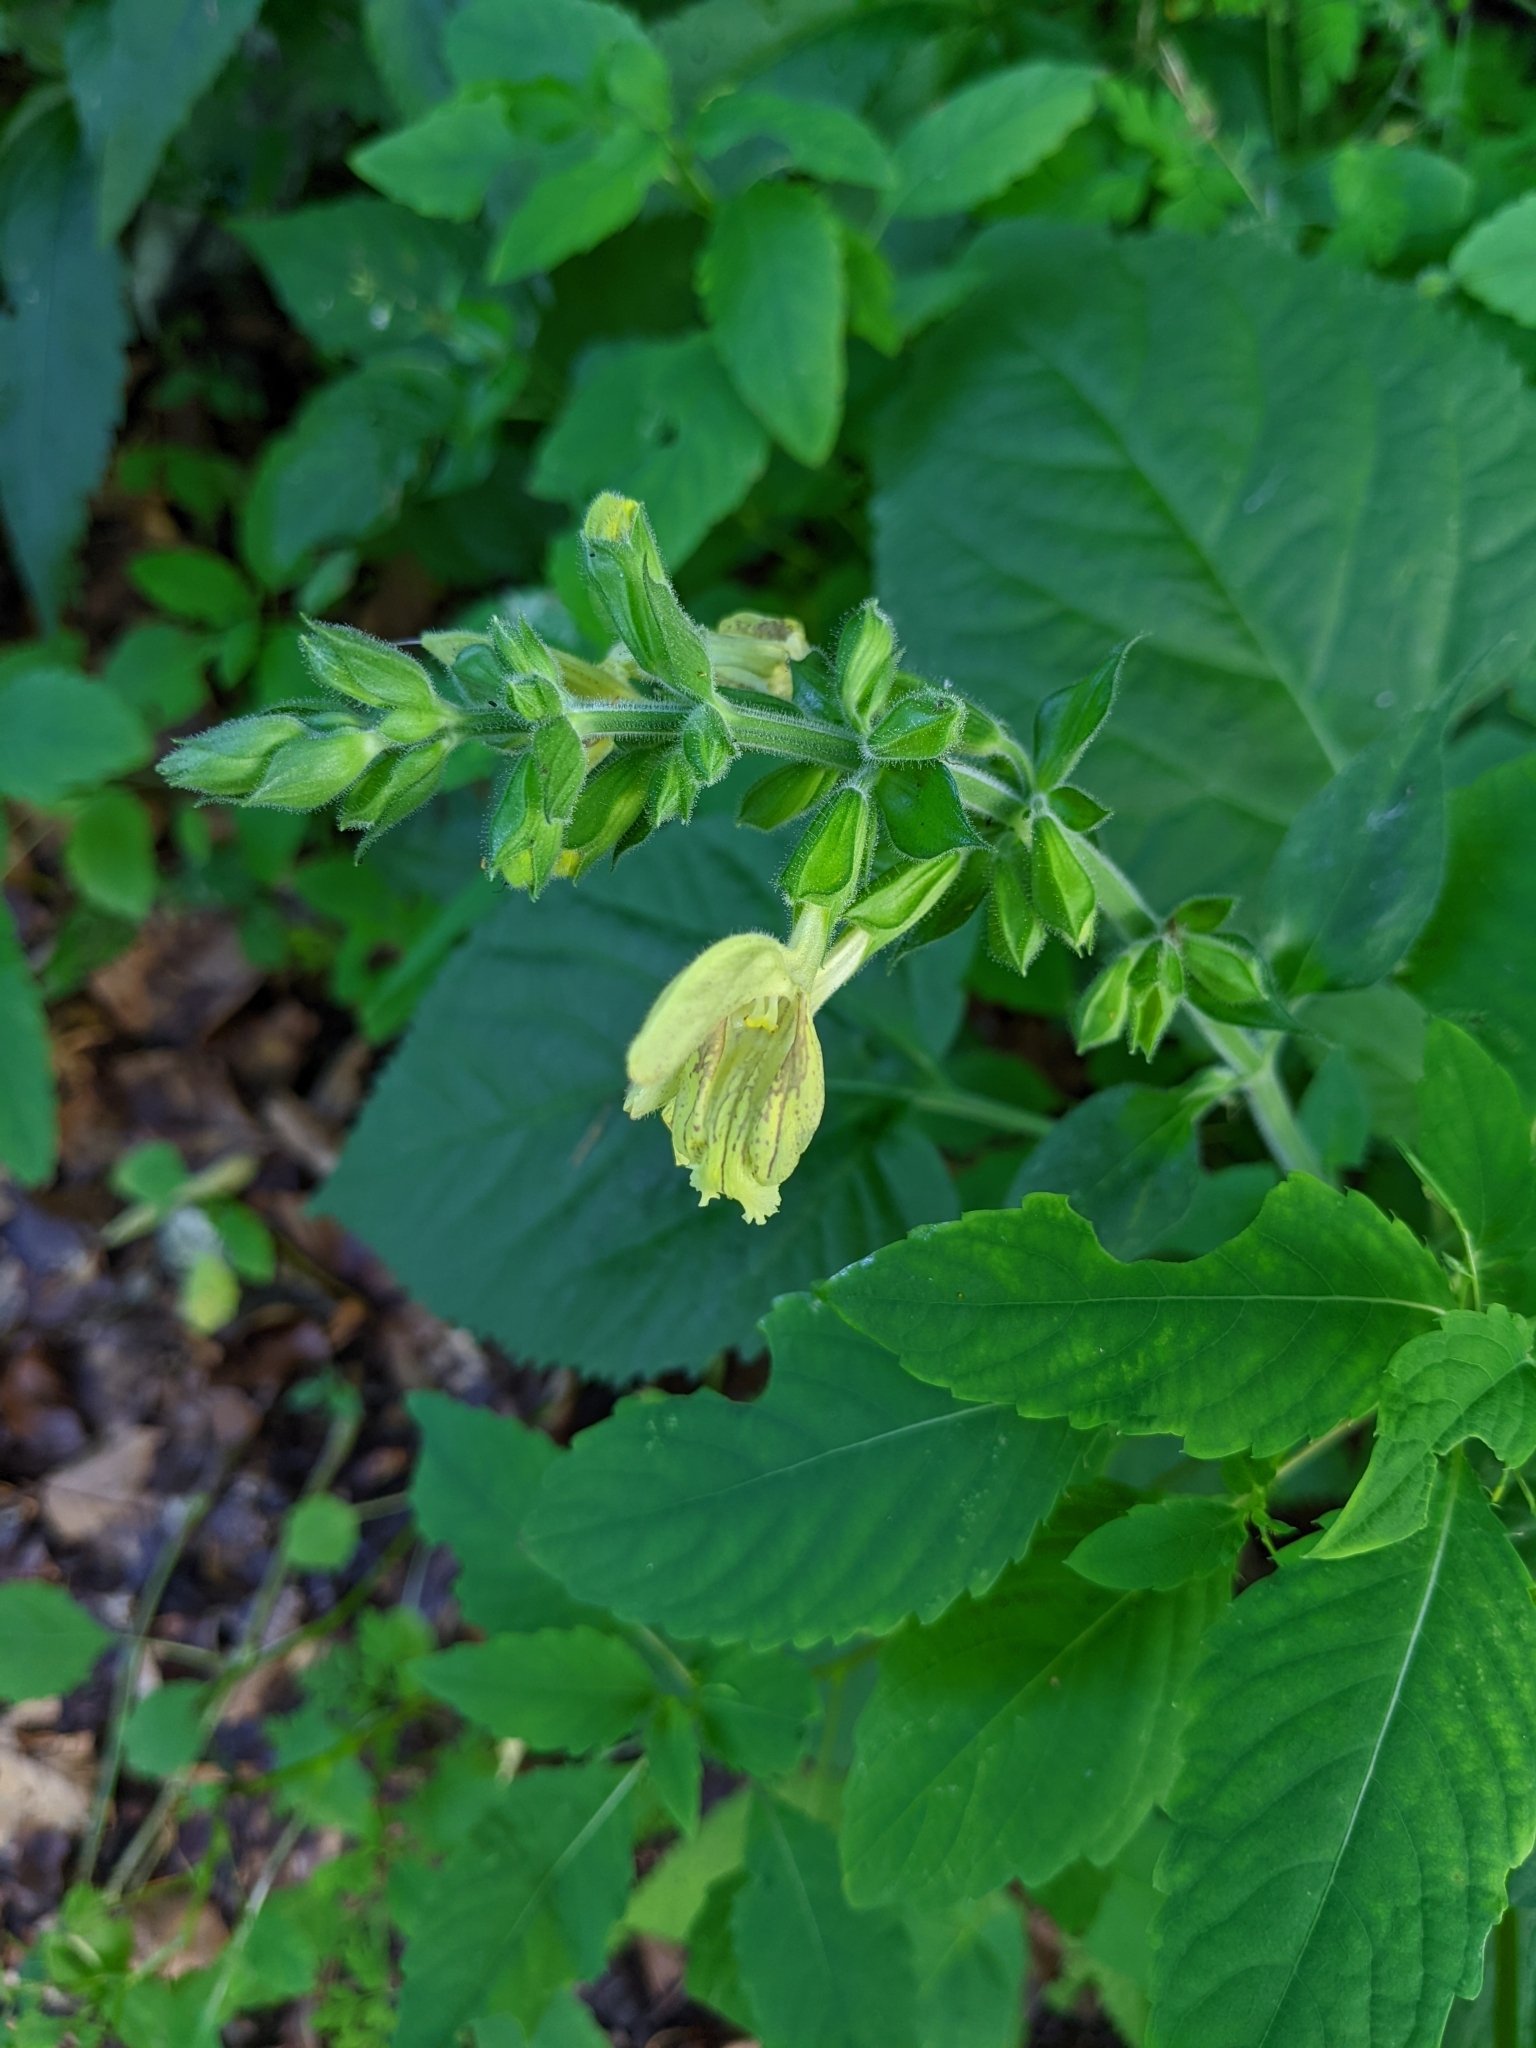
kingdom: Plantae
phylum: Tracheophyta
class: Magnoliopsida
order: Lamiales
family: Lamiaceae
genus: Salvia
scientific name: Salvia glutinosa
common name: Sticky clary
